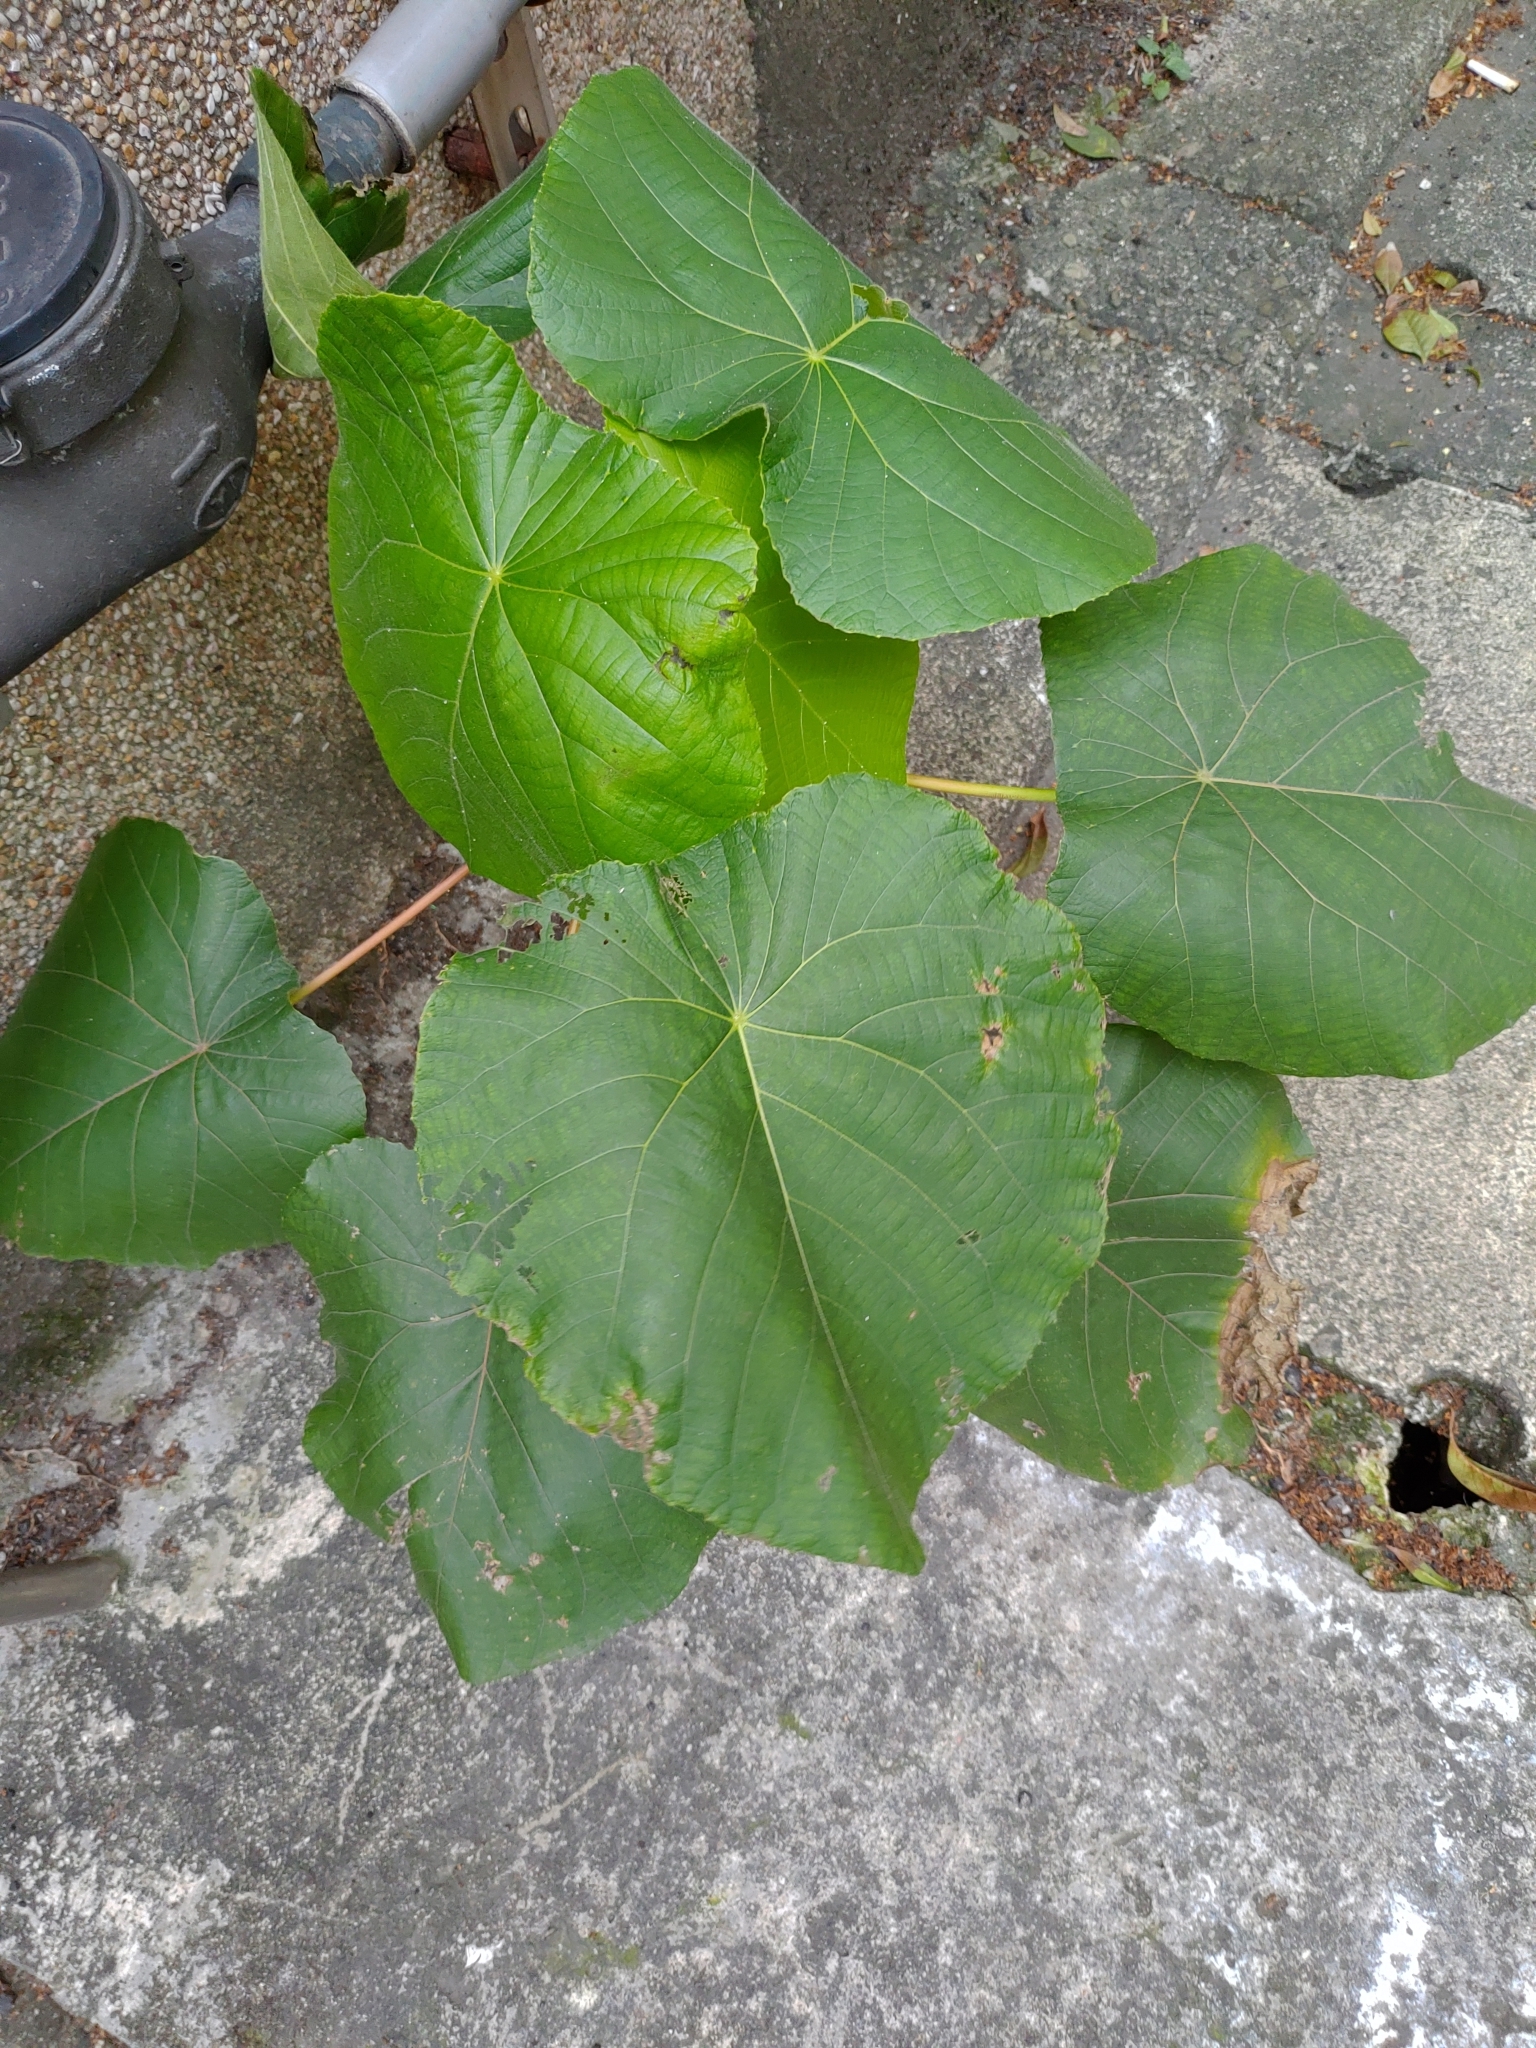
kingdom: Plantae
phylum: Tracheophyta
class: Magnoliopsida
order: Malpighiales
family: Euphorbiaceae
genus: Macaranga
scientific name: Macaranga tanarius
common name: Parasol leaf tree
